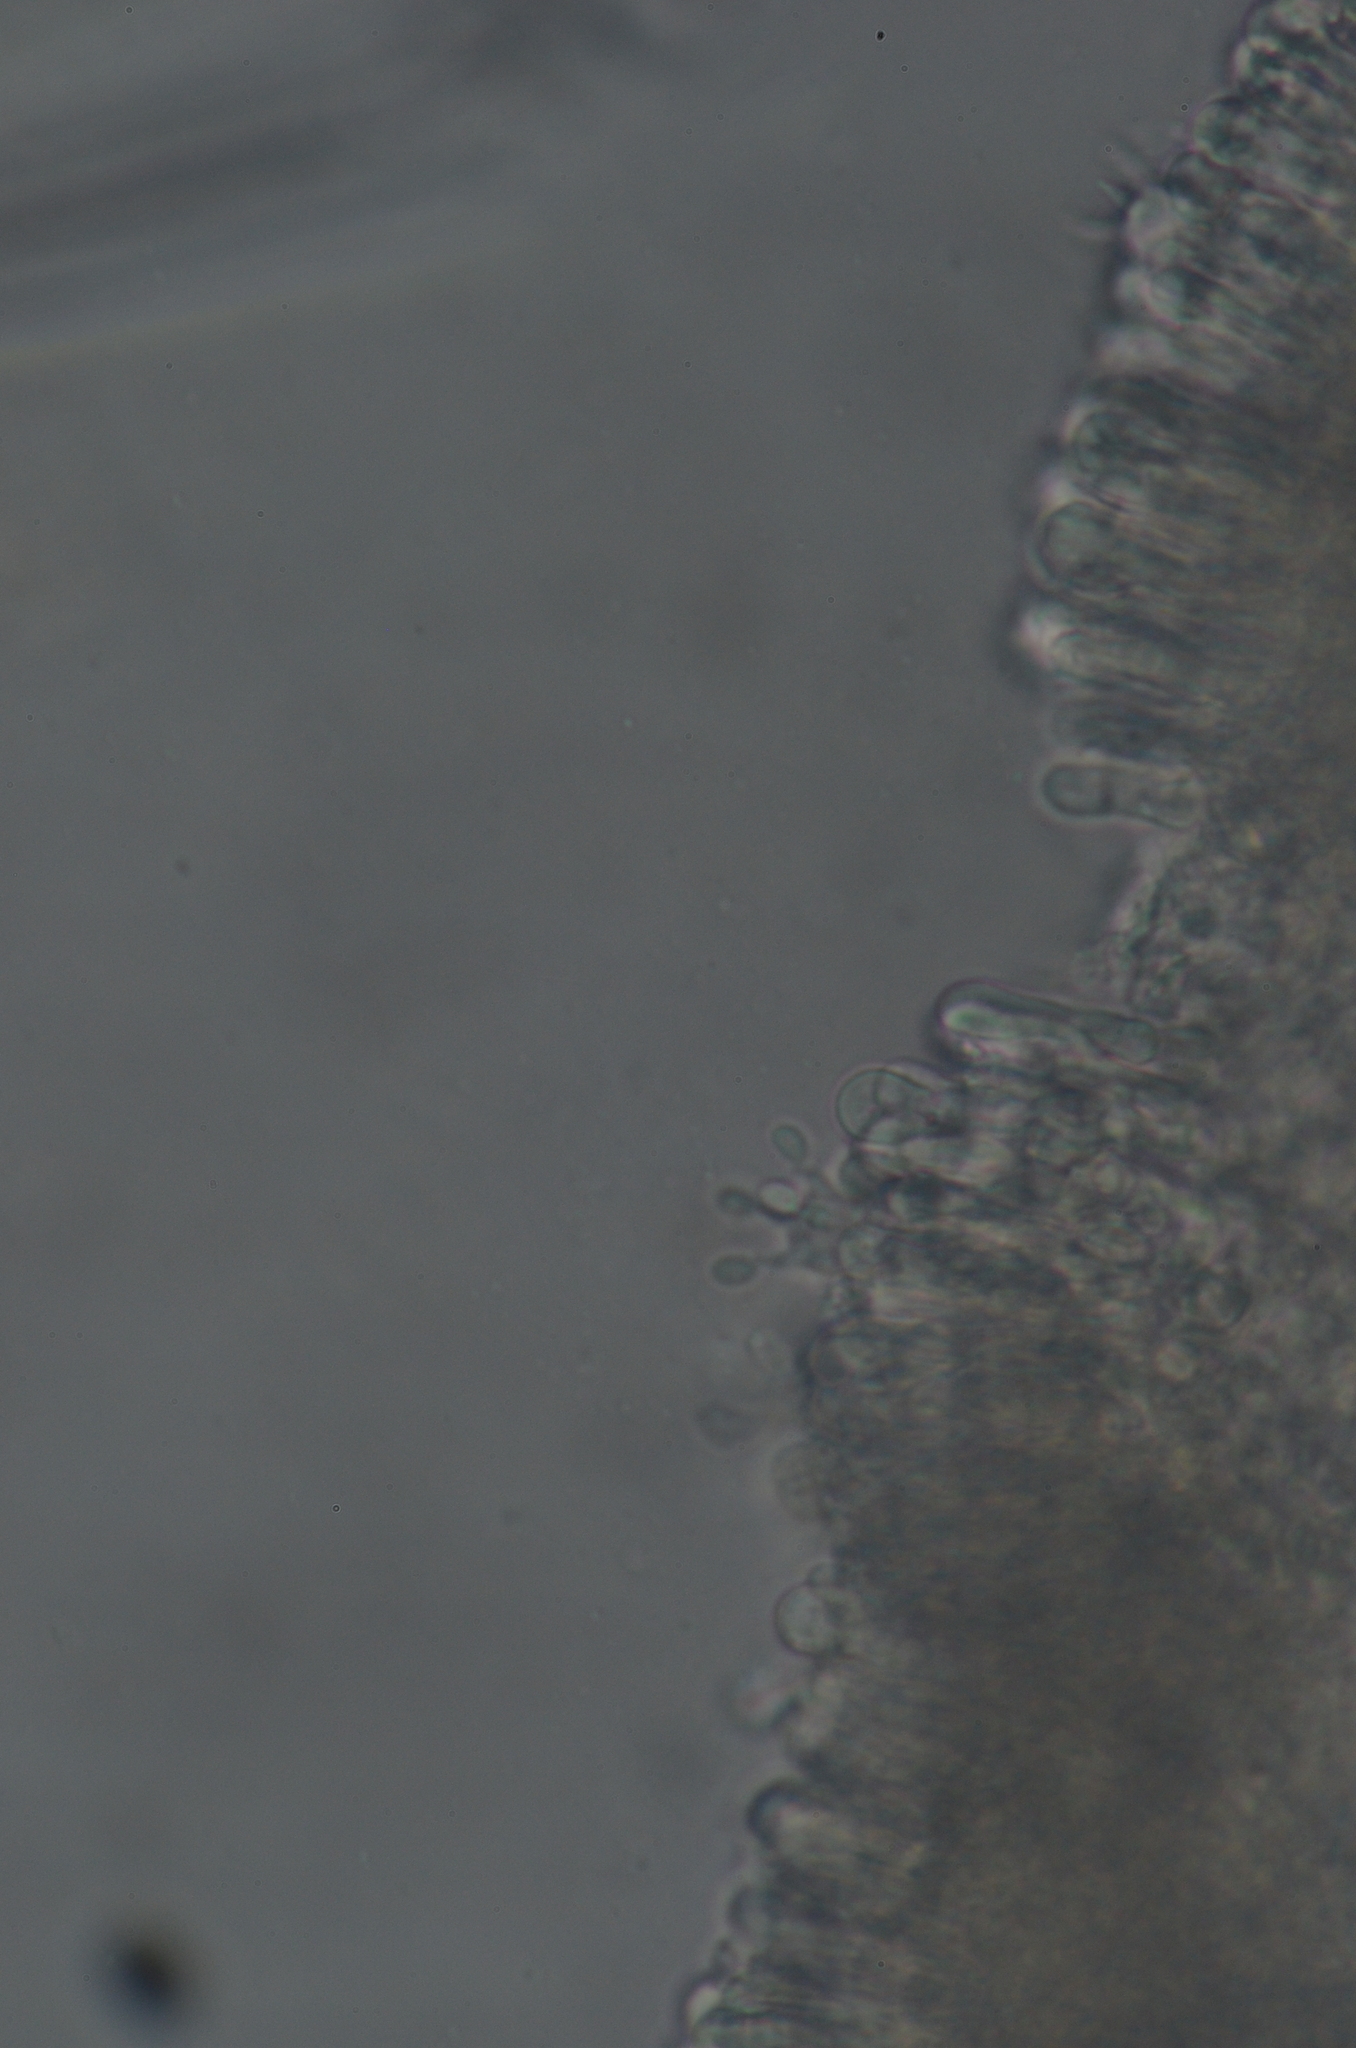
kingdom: Fungi
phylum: Basidiomycota
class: Agaricomycetes
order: Agaricales
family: Tricholomataceae
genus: Rimbachia
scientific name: Rimbachia neckerae
